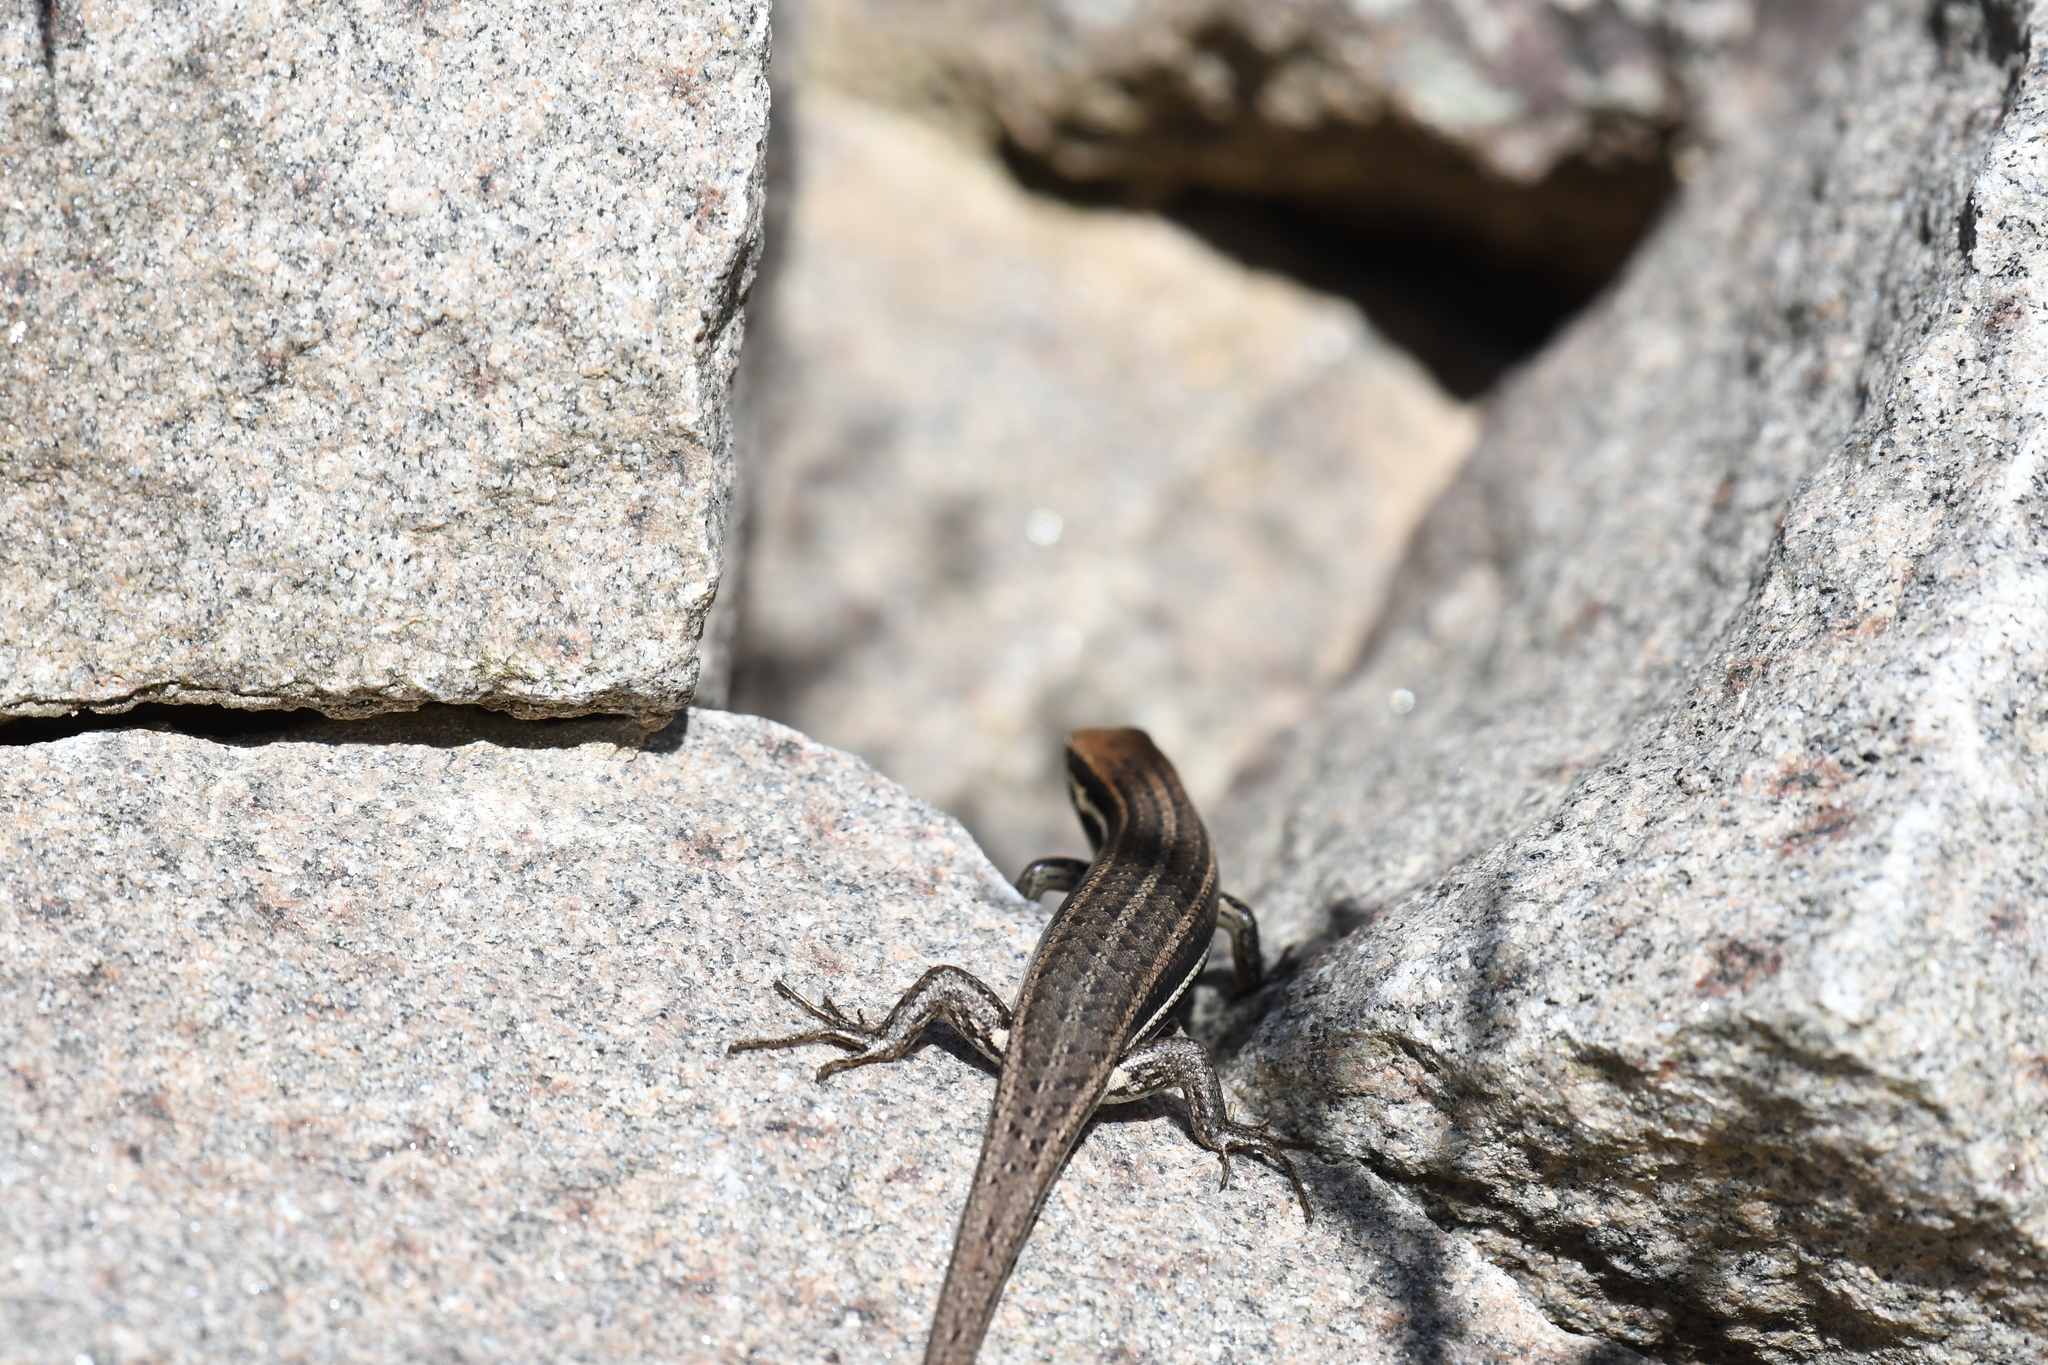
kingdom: Animalia
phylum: Chordata
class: Squamata
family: Scincidae
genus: Trachylepis
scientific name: Trachylepis gravenhorstii
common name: Gravenhorst's mabuya
